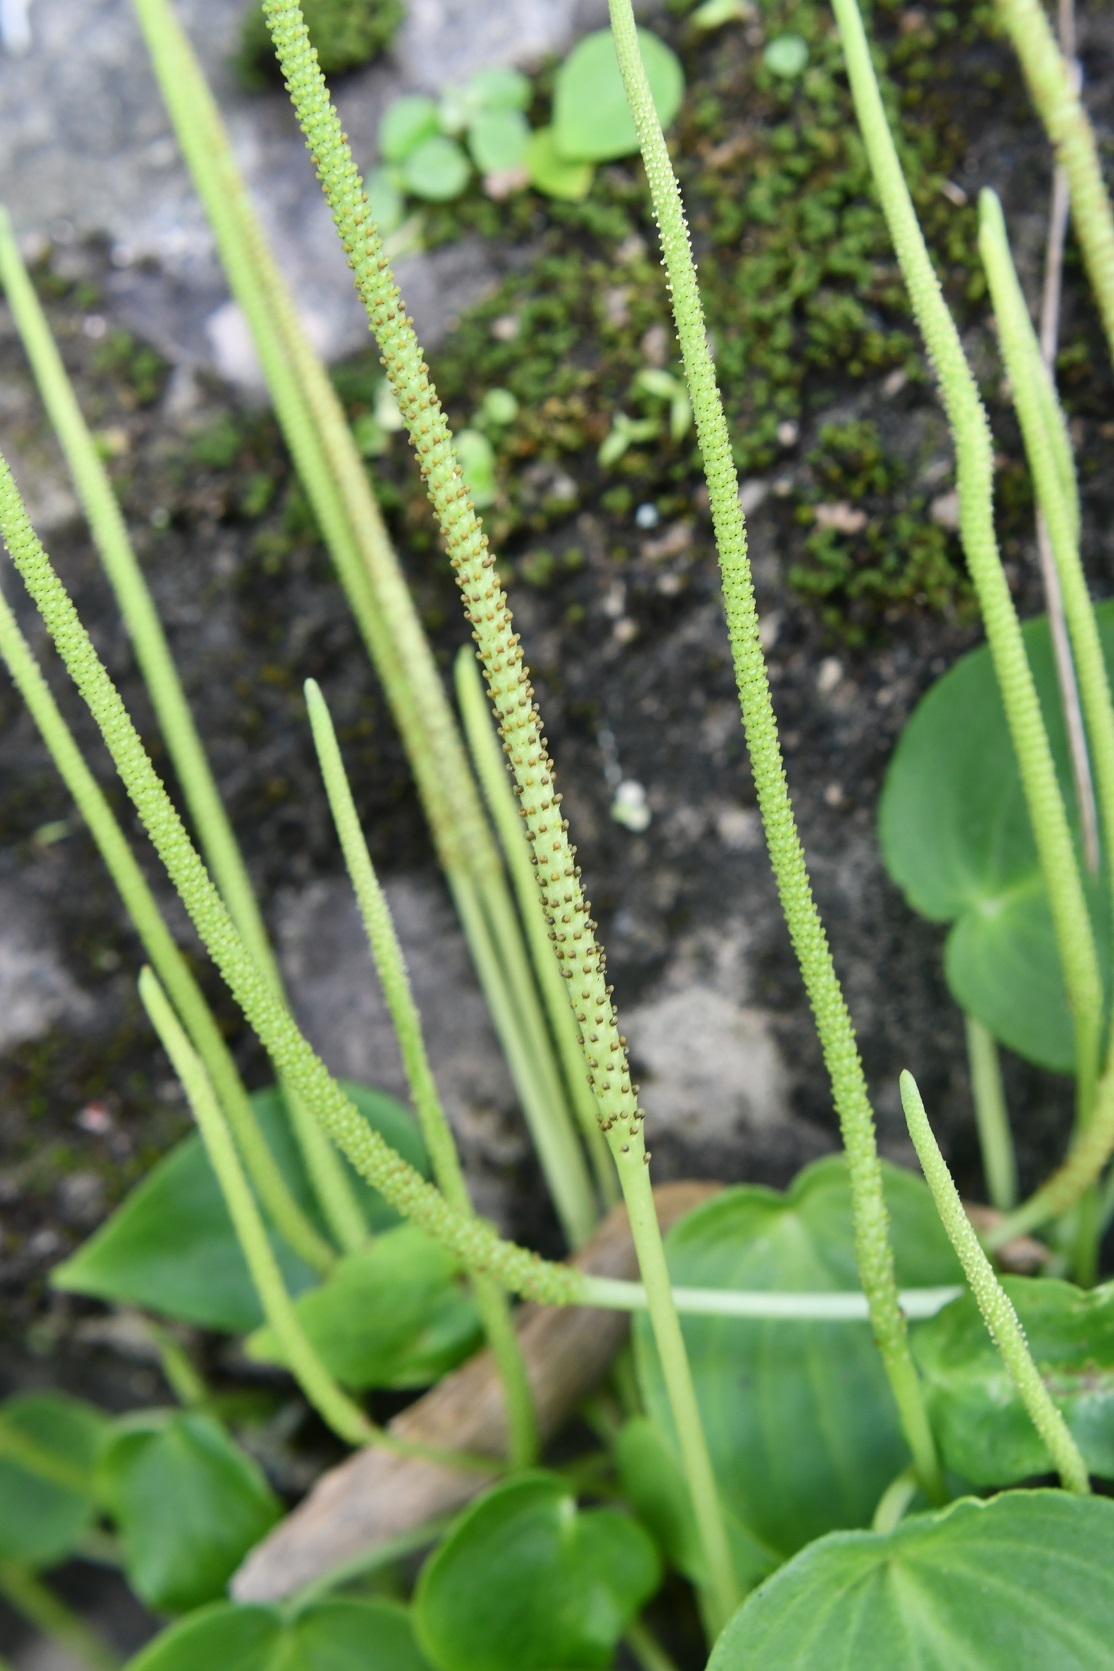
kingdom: Plantae
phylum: Tracheophyta
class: Magnoliopsida
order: Piperales
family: Piperaceae
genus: Peperomia
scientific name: Peperomia lanceolatopeltata
